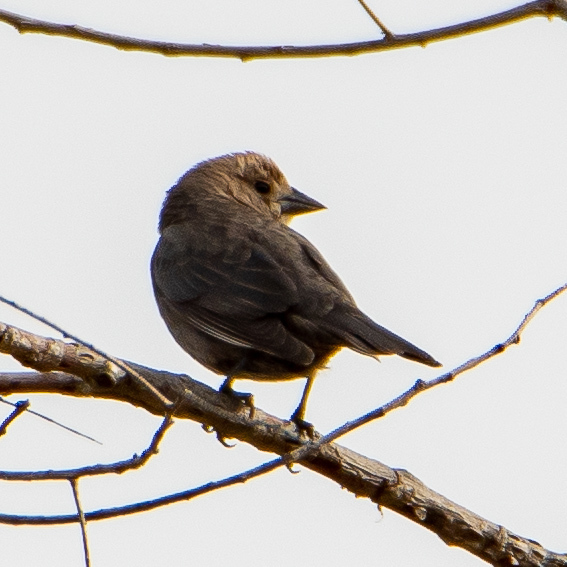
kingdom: Animalia
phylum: Chordata
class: Aves
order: Passeriformes
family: Icteridae
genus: Molothrus
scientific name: Molothrus ater
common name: Brown-headed cowbird
